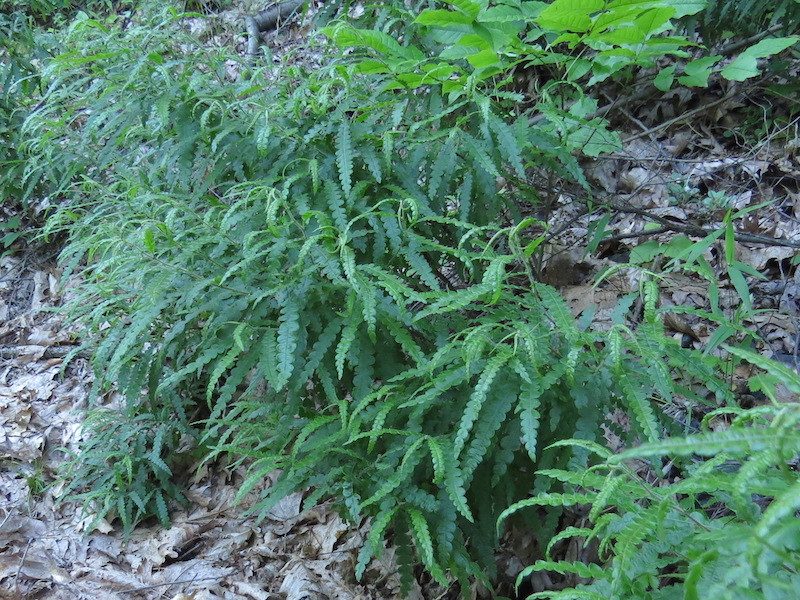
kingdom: Plantae
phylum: Tracheophyta
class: Magnoliopsida
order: Fagales
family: Myricaceae
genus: Comptonia
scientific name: Comptonia peregrina
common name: Sweet-fern
